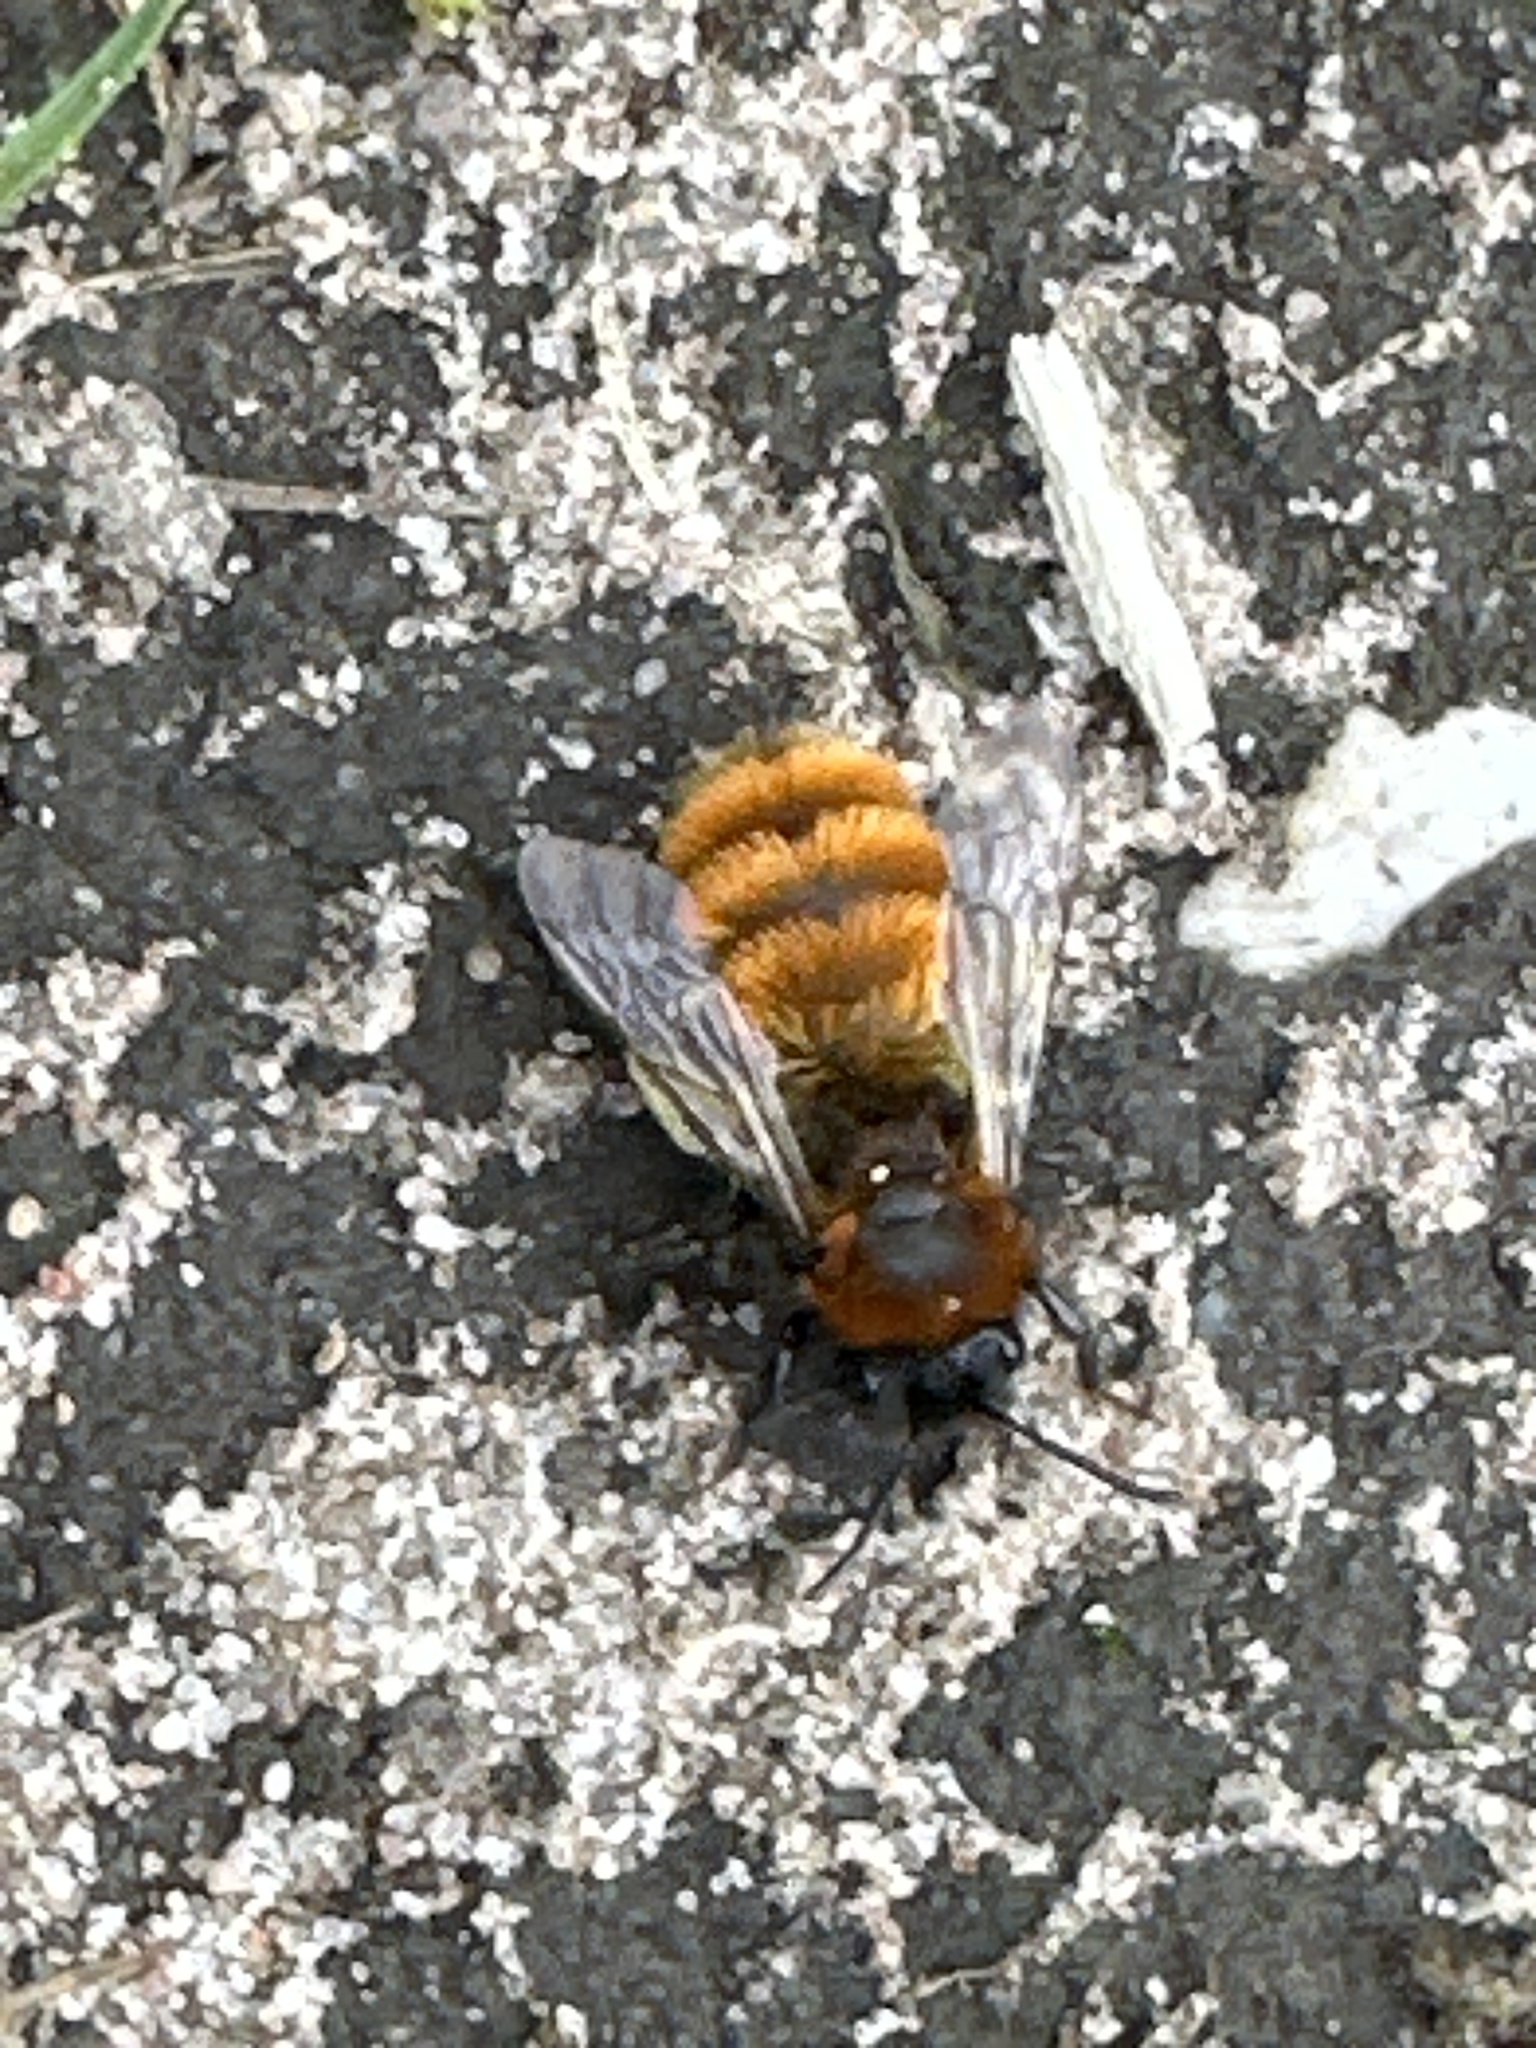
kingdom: Animalia
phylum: Arthropoda
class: Insecta
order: Hymenoptera
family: Andrenidae
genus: Andrena
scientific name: Andrena fulva
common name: Tawny mining bee
